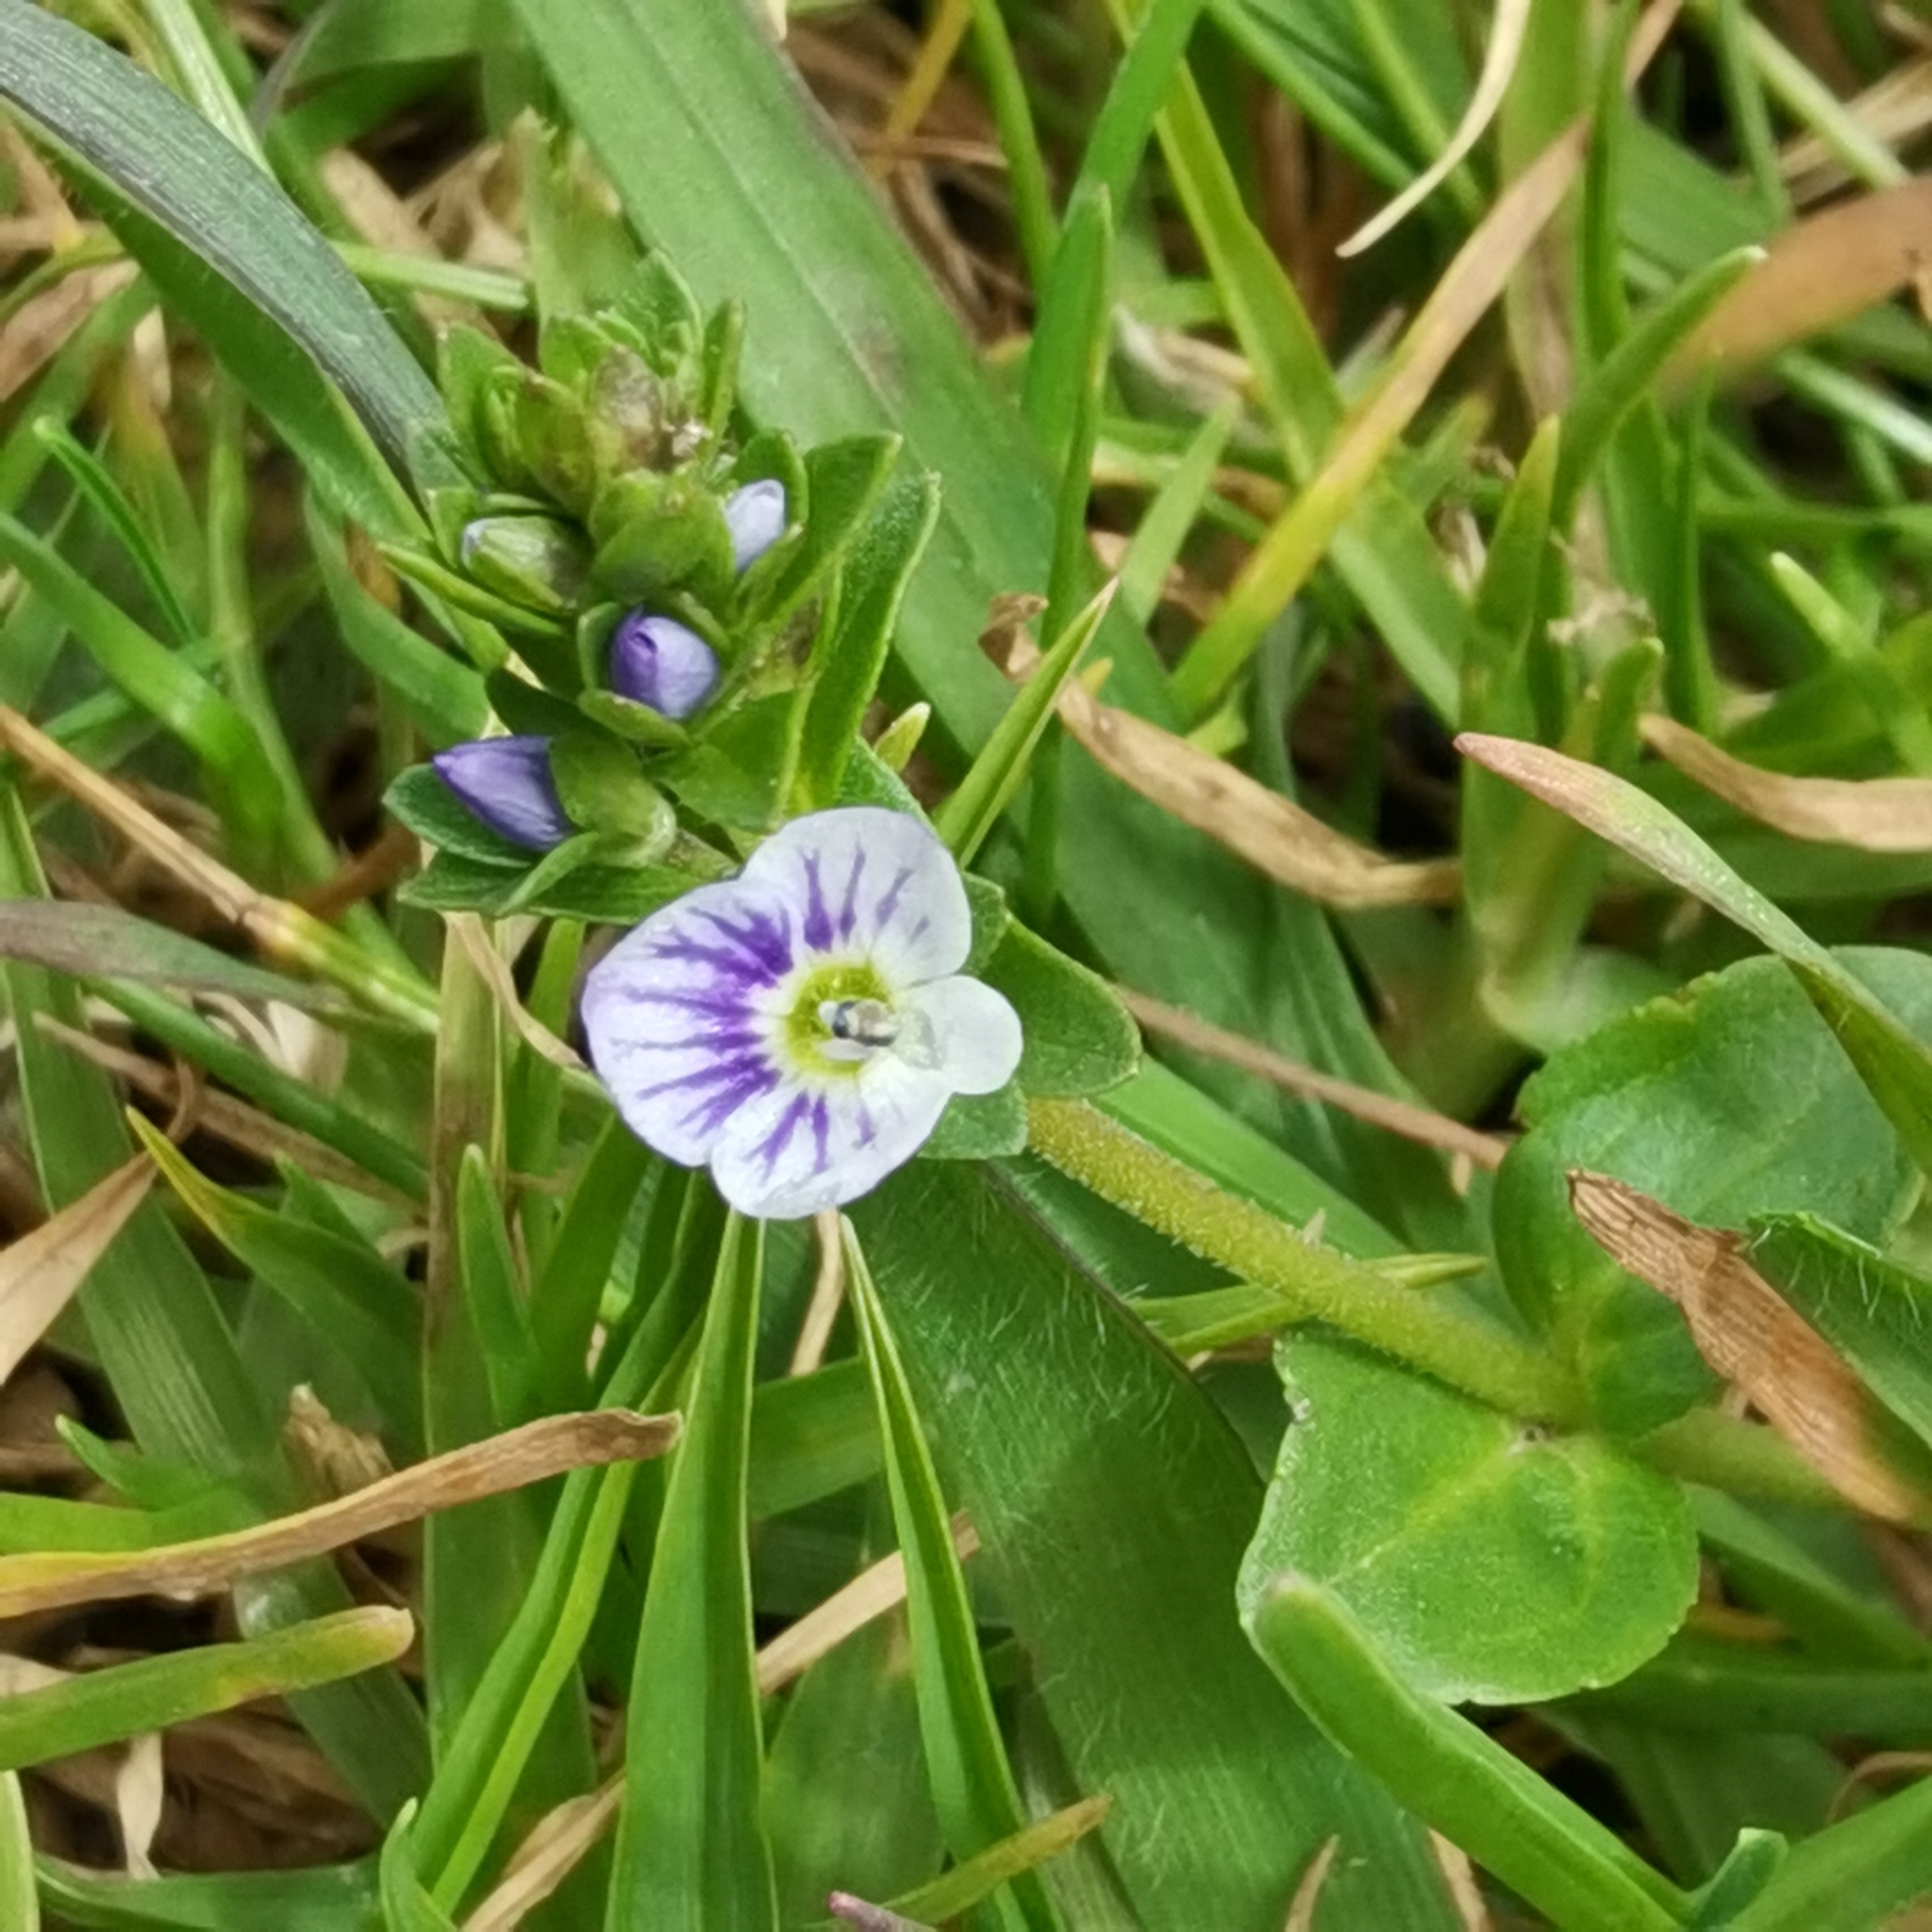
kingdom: Plantae
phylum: Tracheophyta
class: Magnoliopsida
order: Lamiales
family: Plantaginaceae
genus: Veronica
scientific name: Veronica serpyllifolia
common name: Thyme-leaved speedwell
